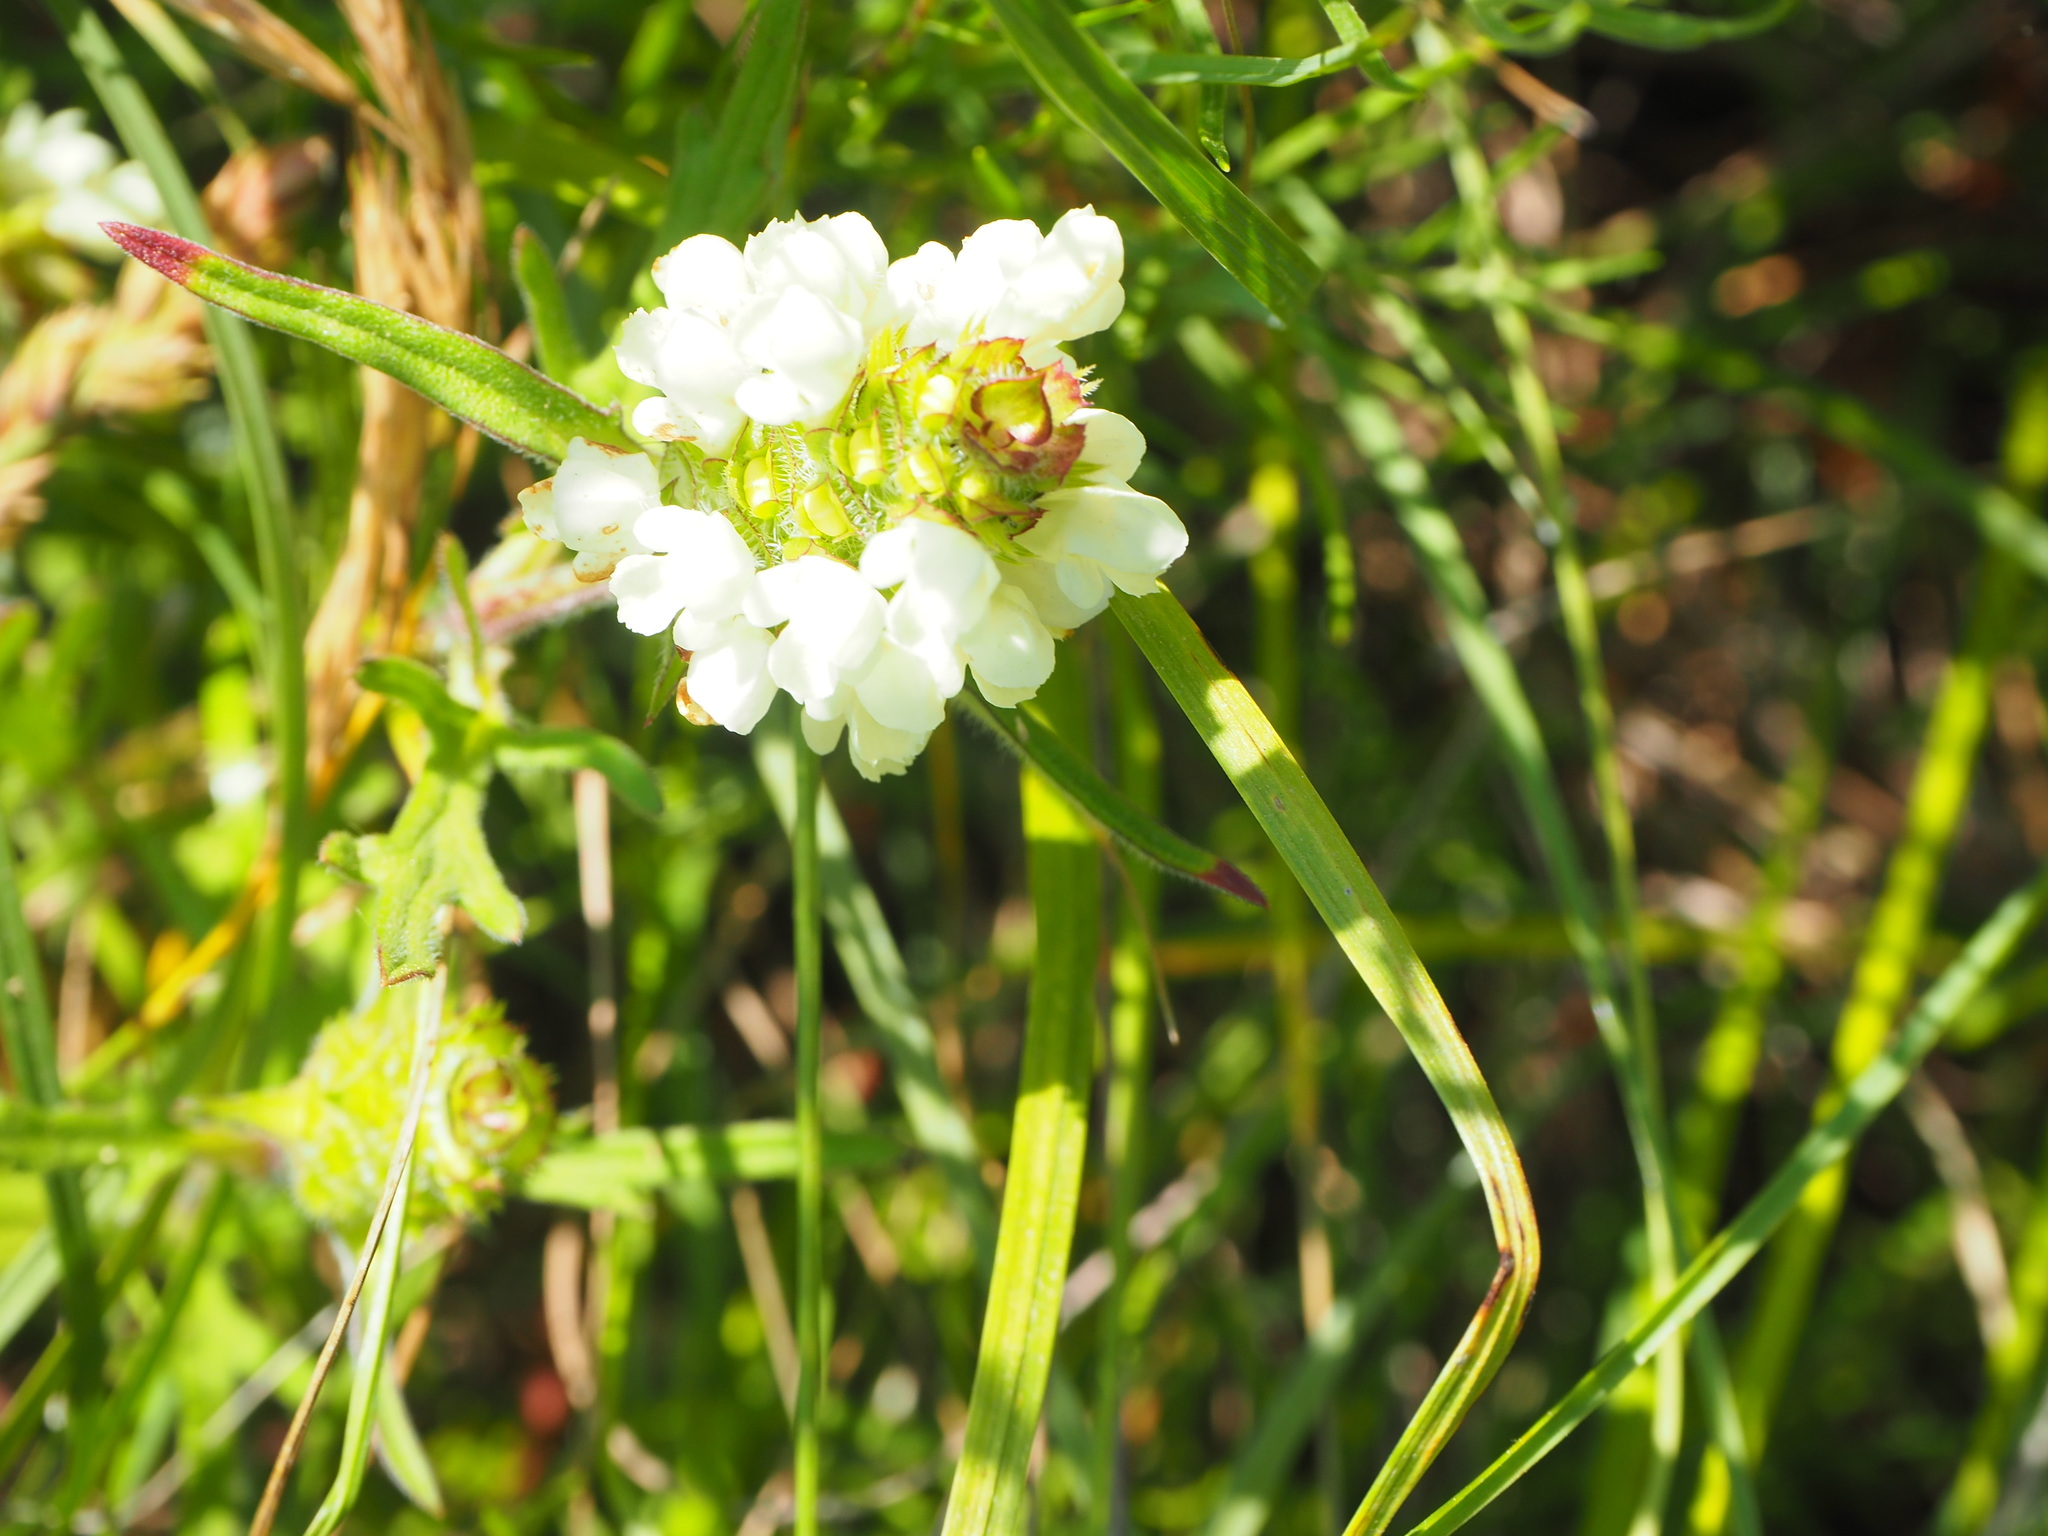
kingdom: Plantae
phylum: Tracheophyta
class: Magnoliopsida
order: Lamiales
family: Lamiaceae
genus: Prunella
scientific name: Prunella laciniata
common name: Cut-leaved selfheal
